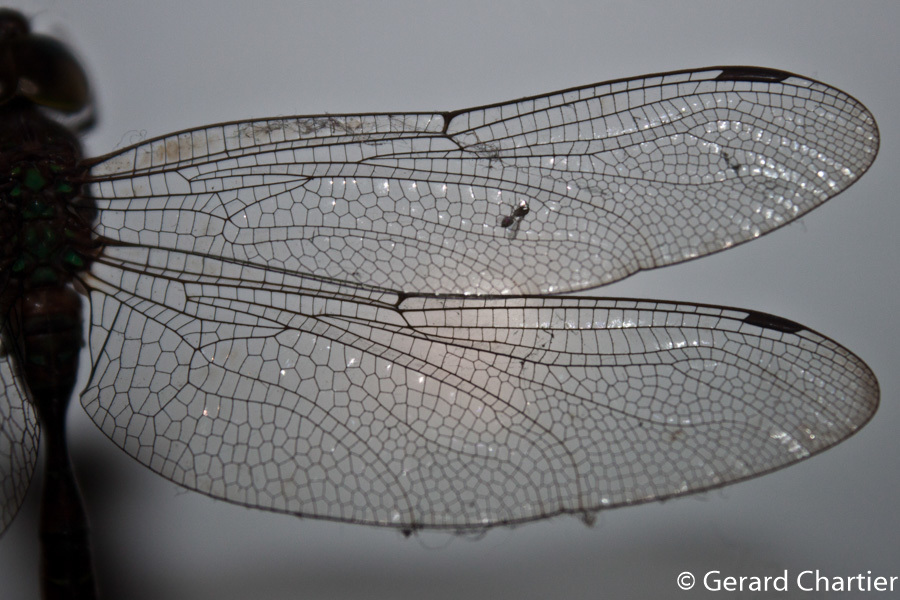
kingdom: Animalia
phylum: Arthropoda
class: Insecta
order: Odonata
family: Aeshnidae
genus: Heliaeschna
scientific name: Heliaeschna simplicia
